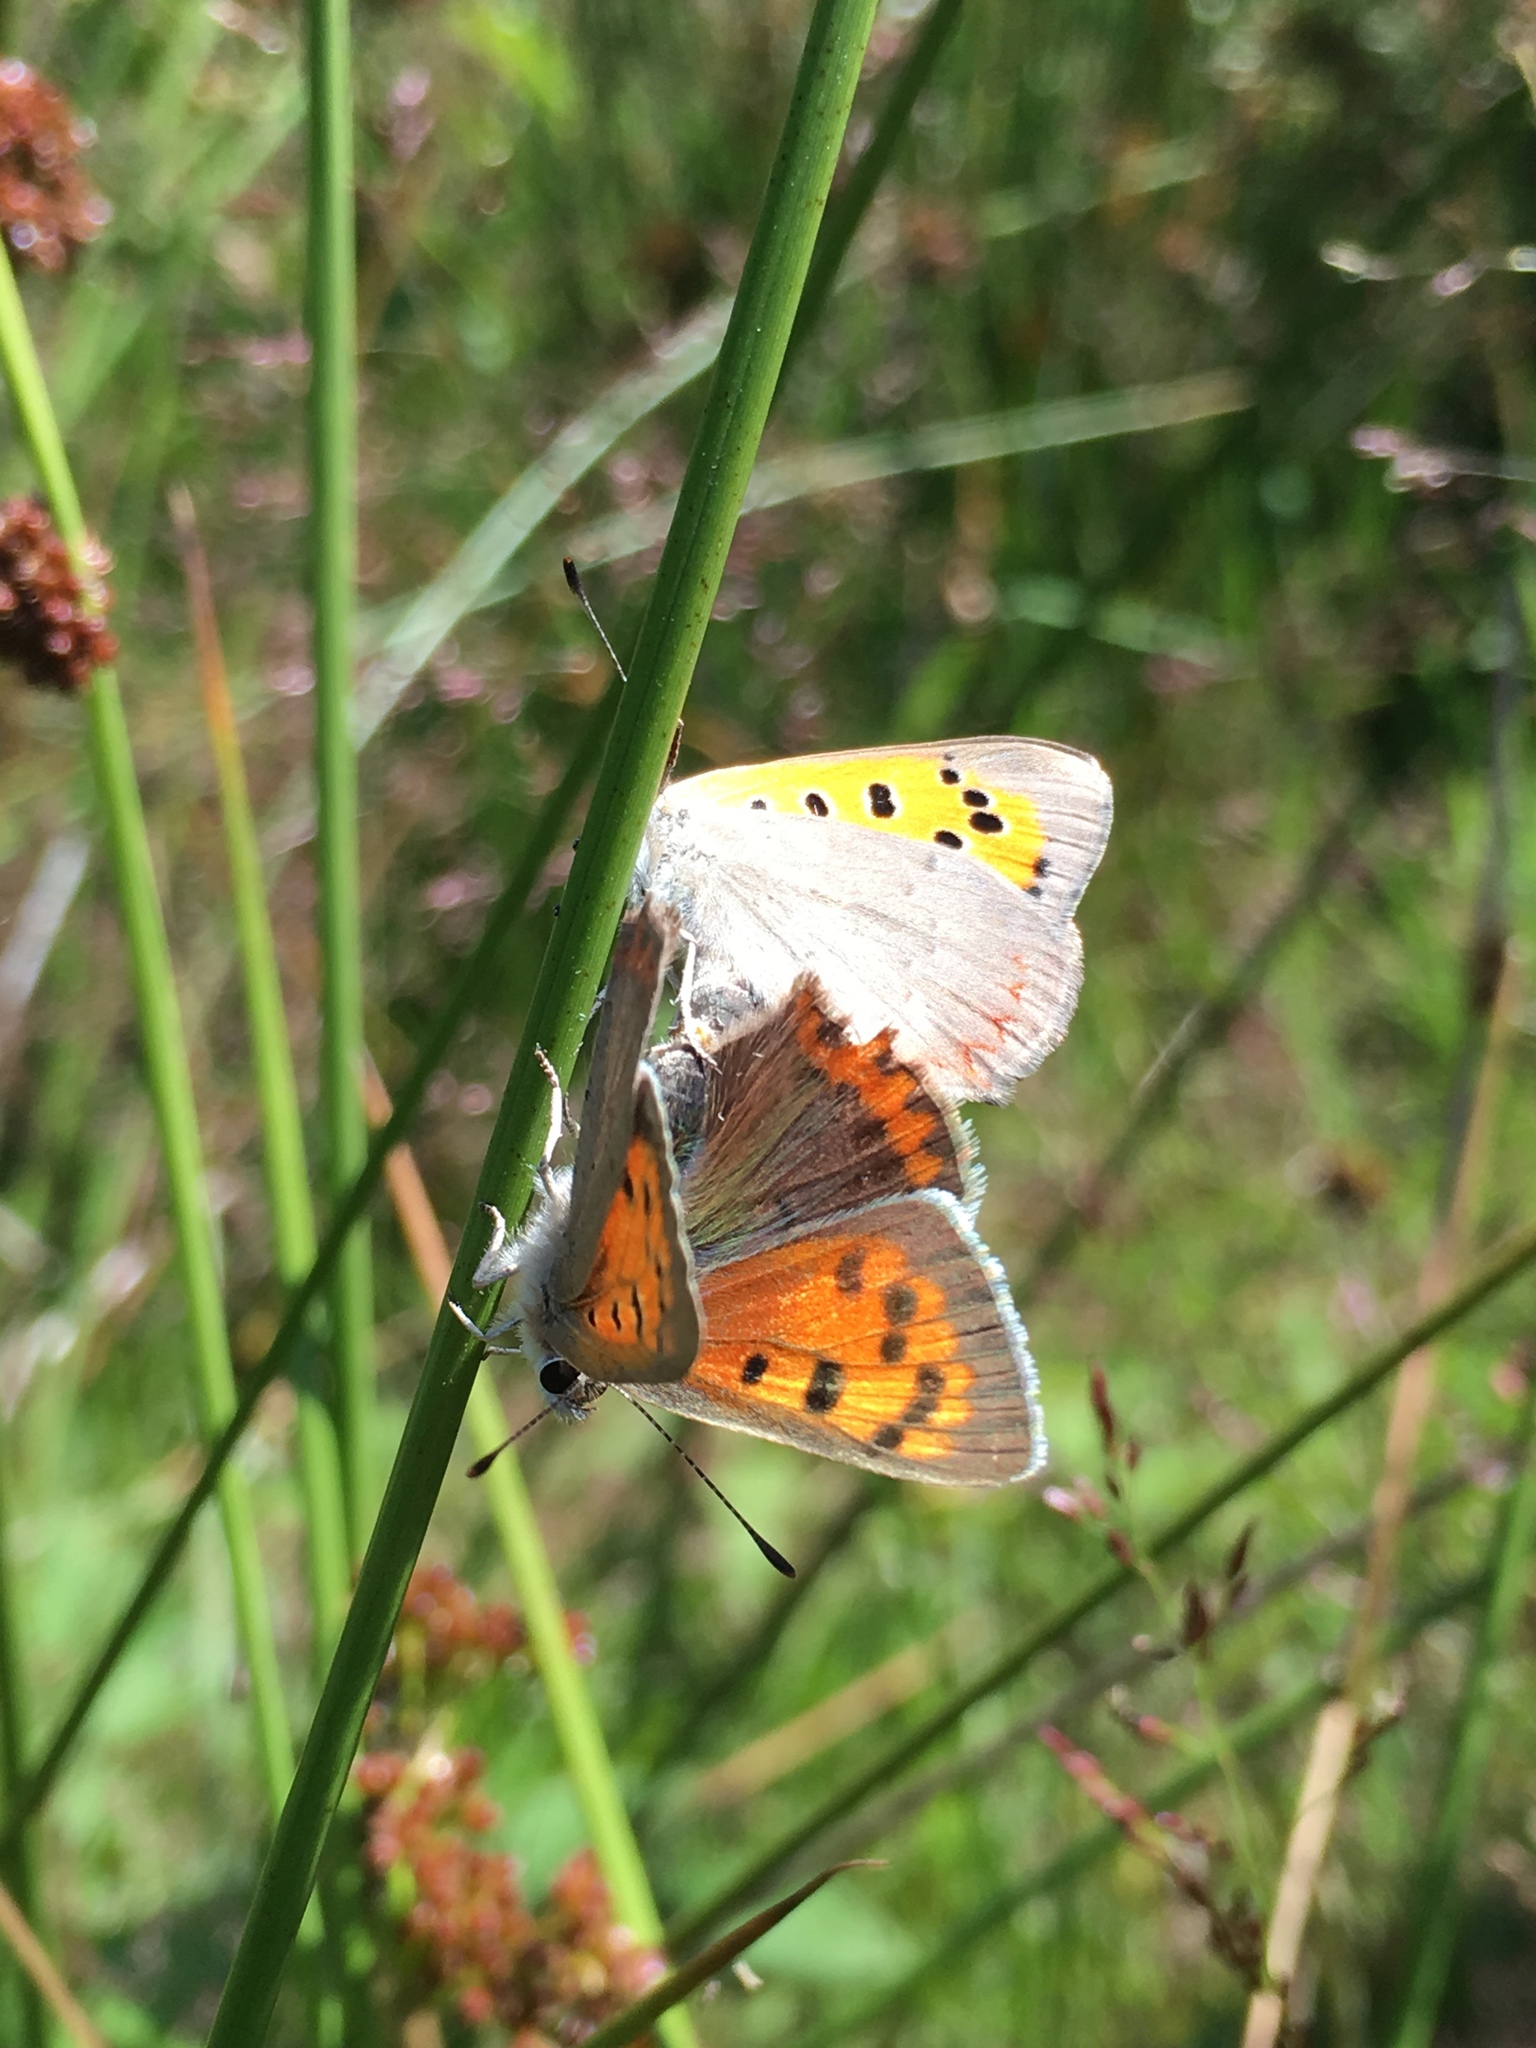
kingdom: Animalia
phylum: Arthropoda
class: Insecta
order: Lepidoptera
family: Lycaenidae
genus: Lycaena
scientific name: Lycaena phlaeas
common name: Small copper
